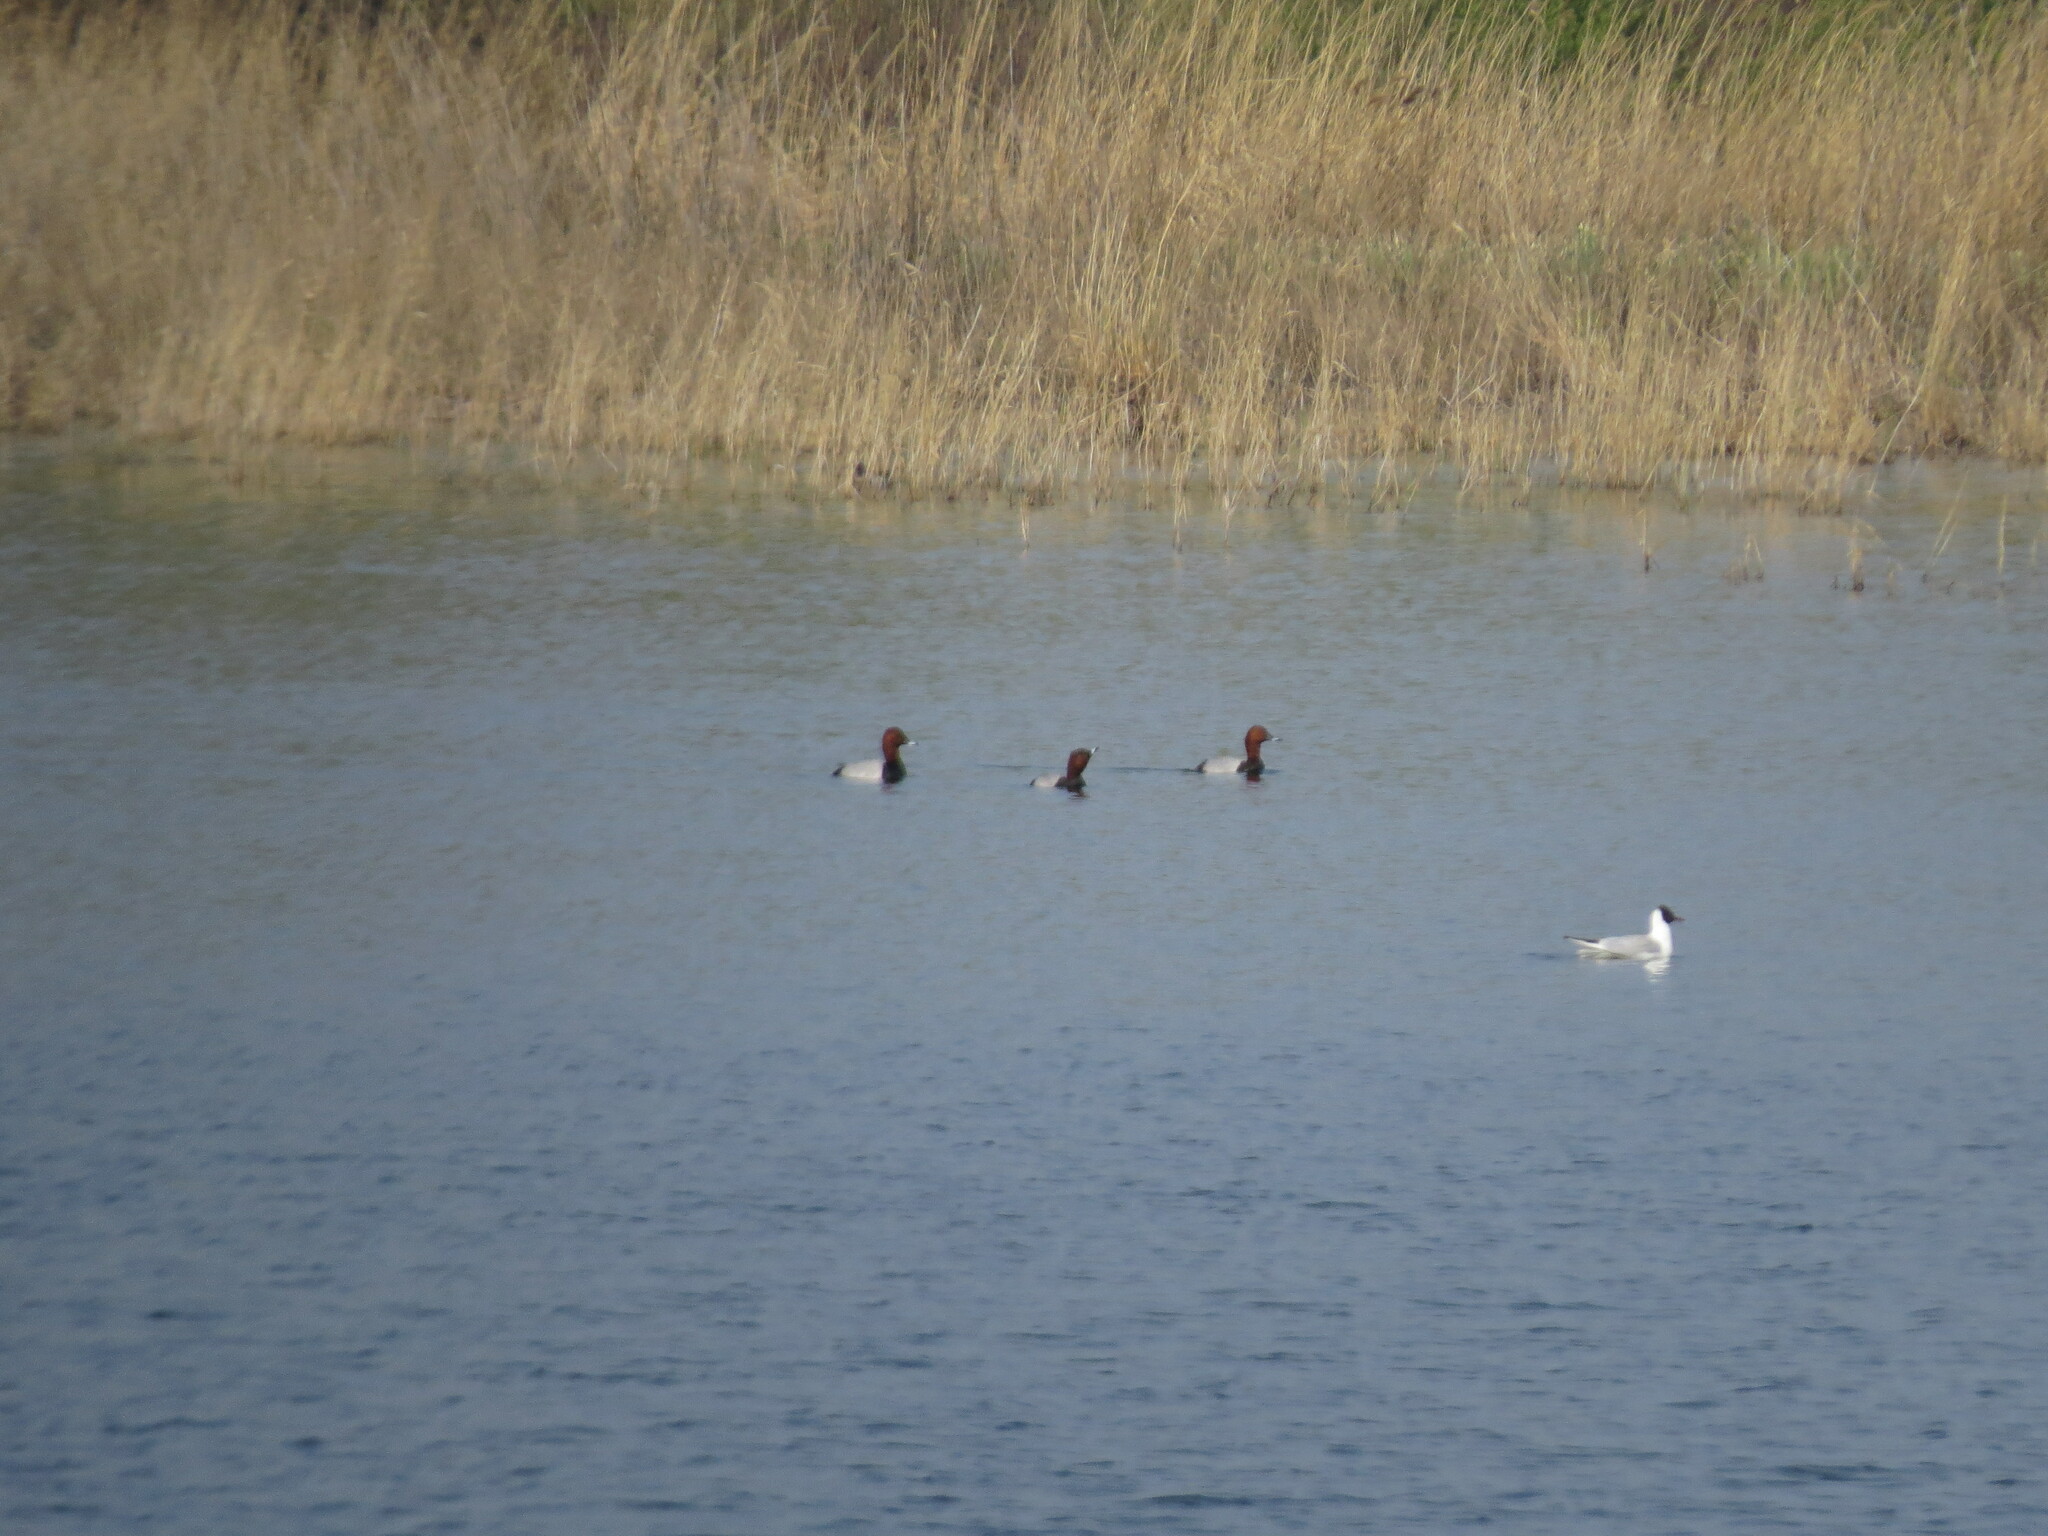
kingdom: Animalia
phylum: Chordata
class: Aves
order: Anseriformes
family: Anatidae
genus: Aythya
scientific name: Aythya ferina
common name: Common pochard
